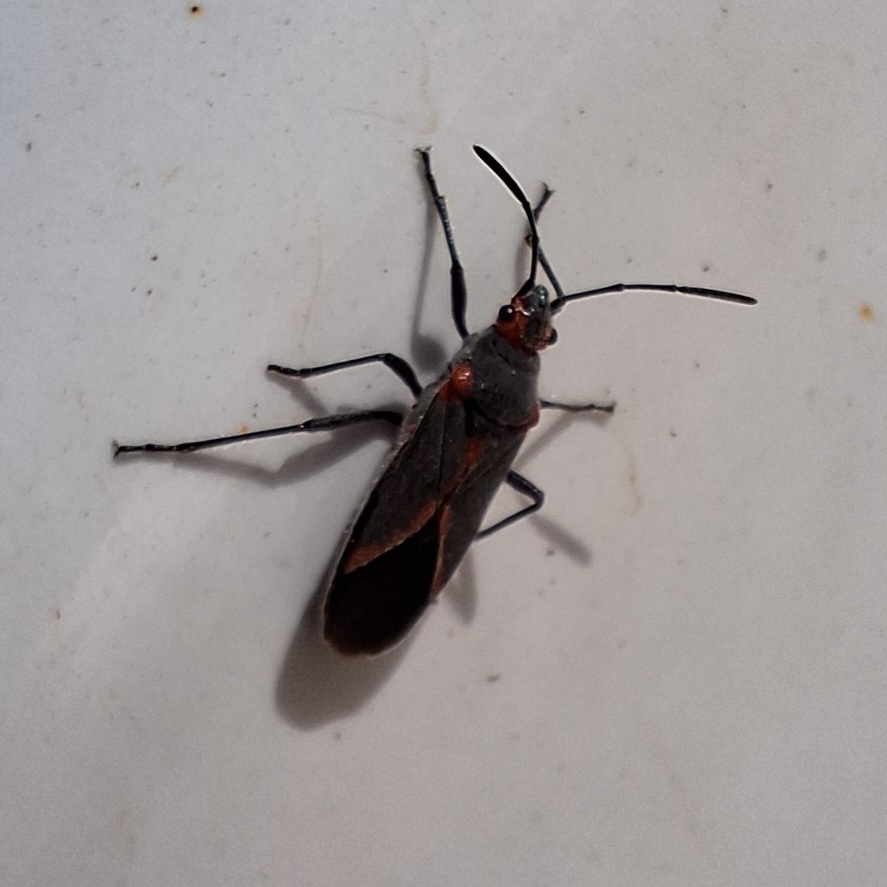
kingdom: Animalia
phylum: Arthropoda
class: Insecta
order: Hemiptera
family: Lygaeidae
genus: Caenocoris
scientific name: Caenocoris nerii
